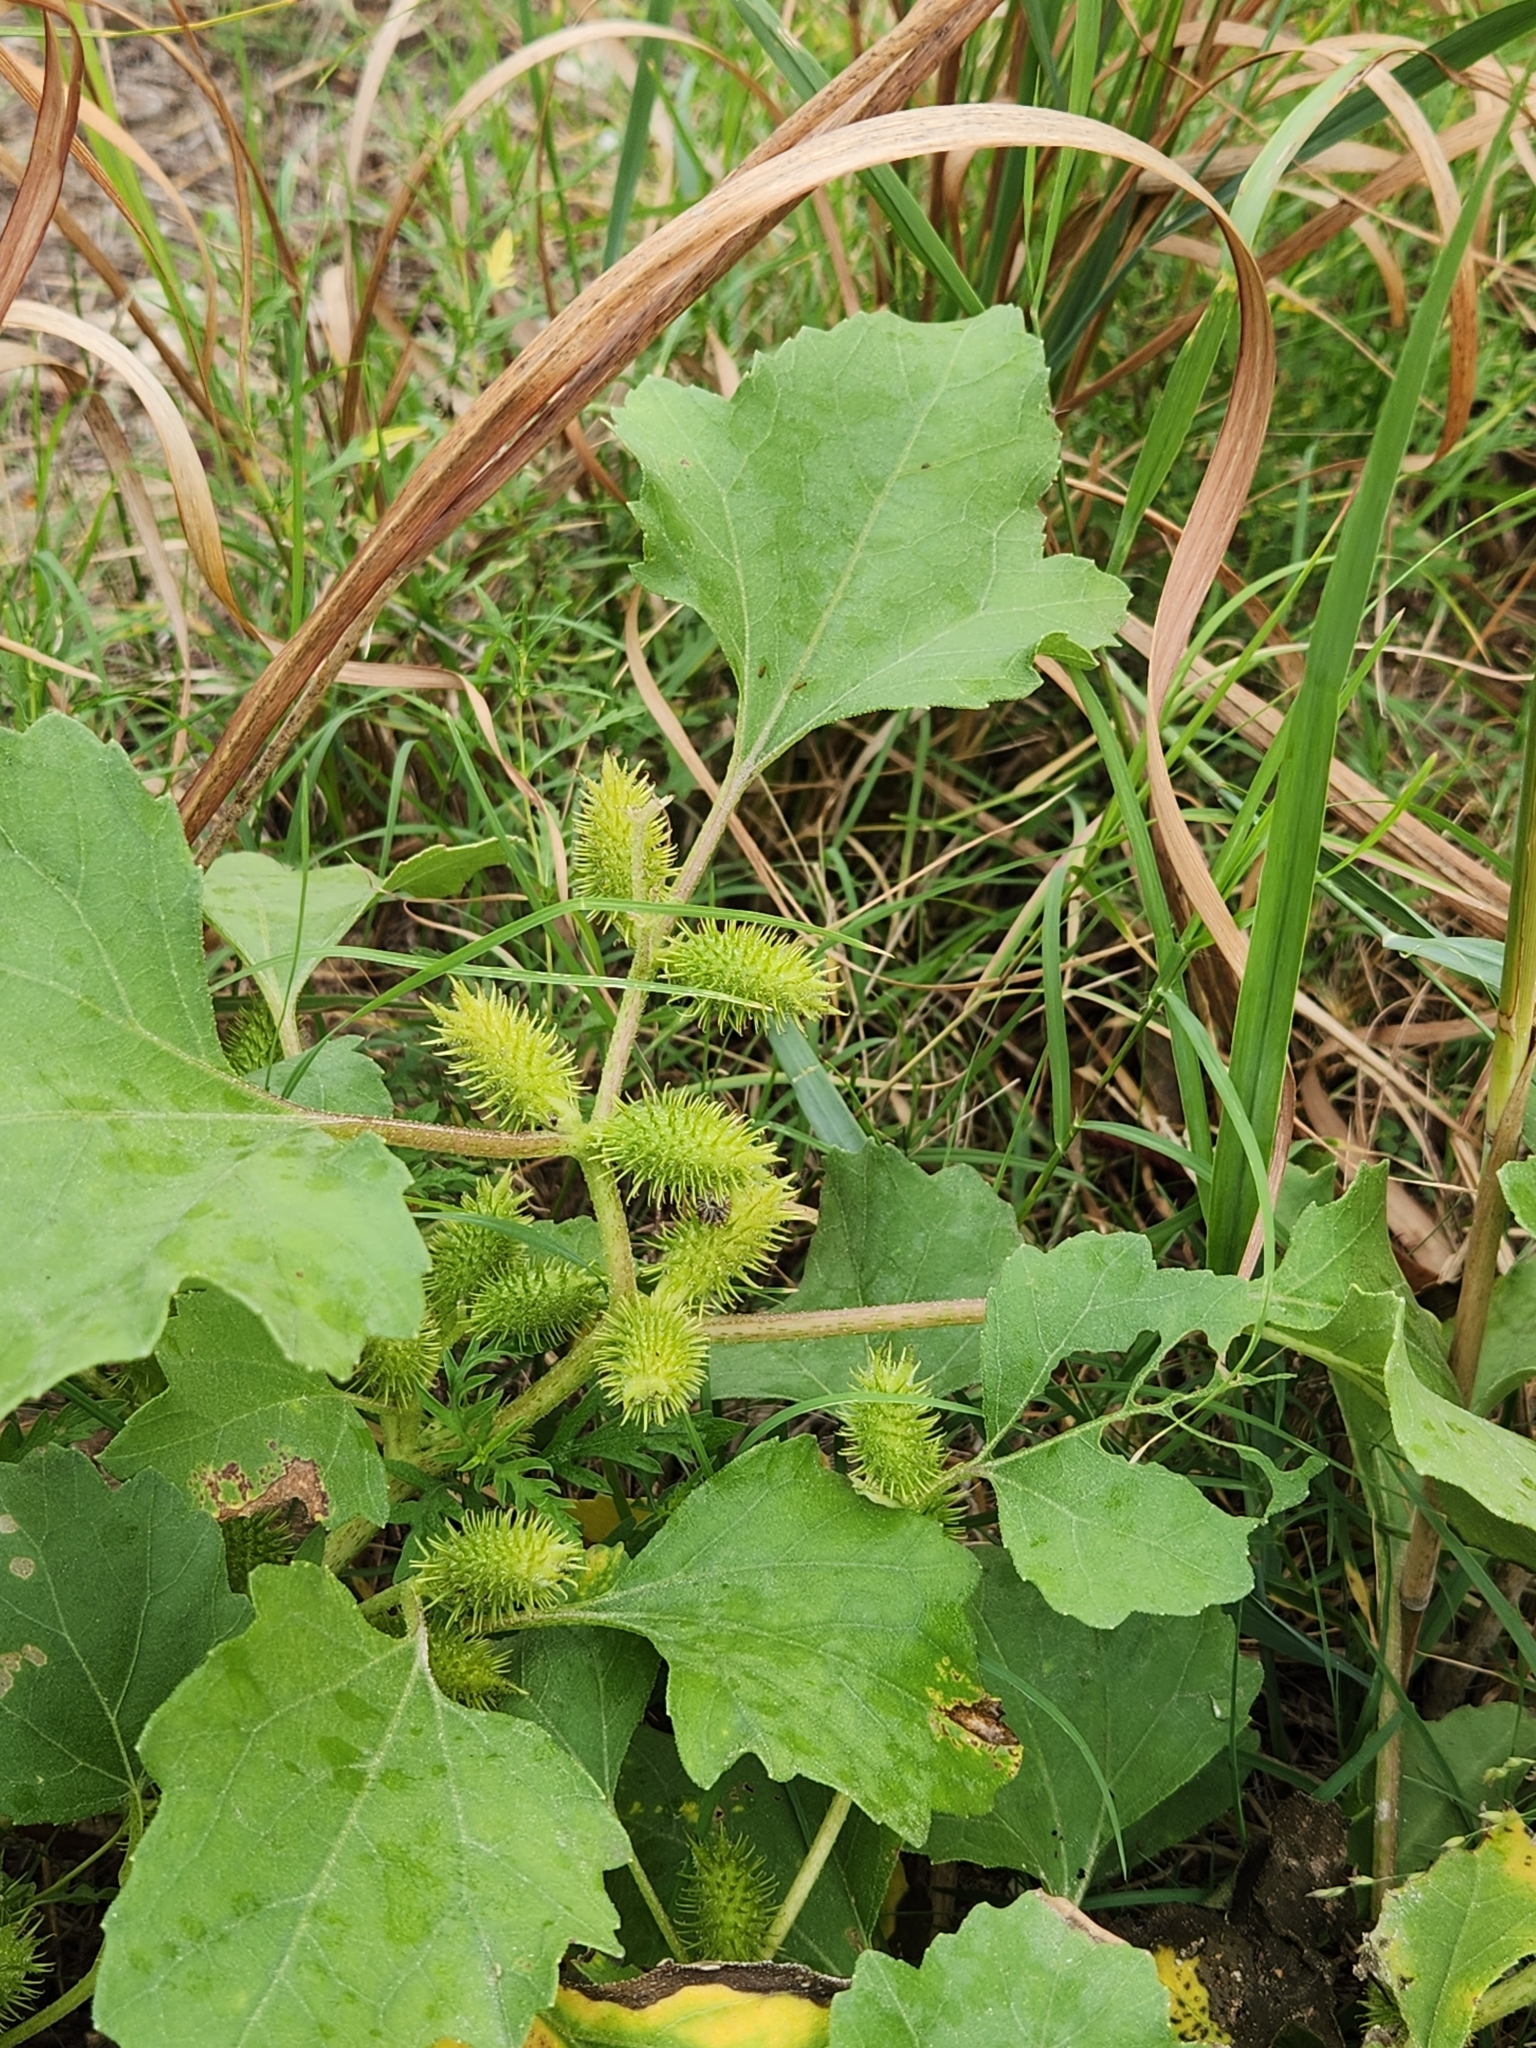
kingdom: Plantae
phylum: Tracheophyta
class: Magnoliopsida
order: Asterales
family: Asteraceae
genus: Xanthium
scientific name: Xanthium strumarium
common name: Rough cocklebur
